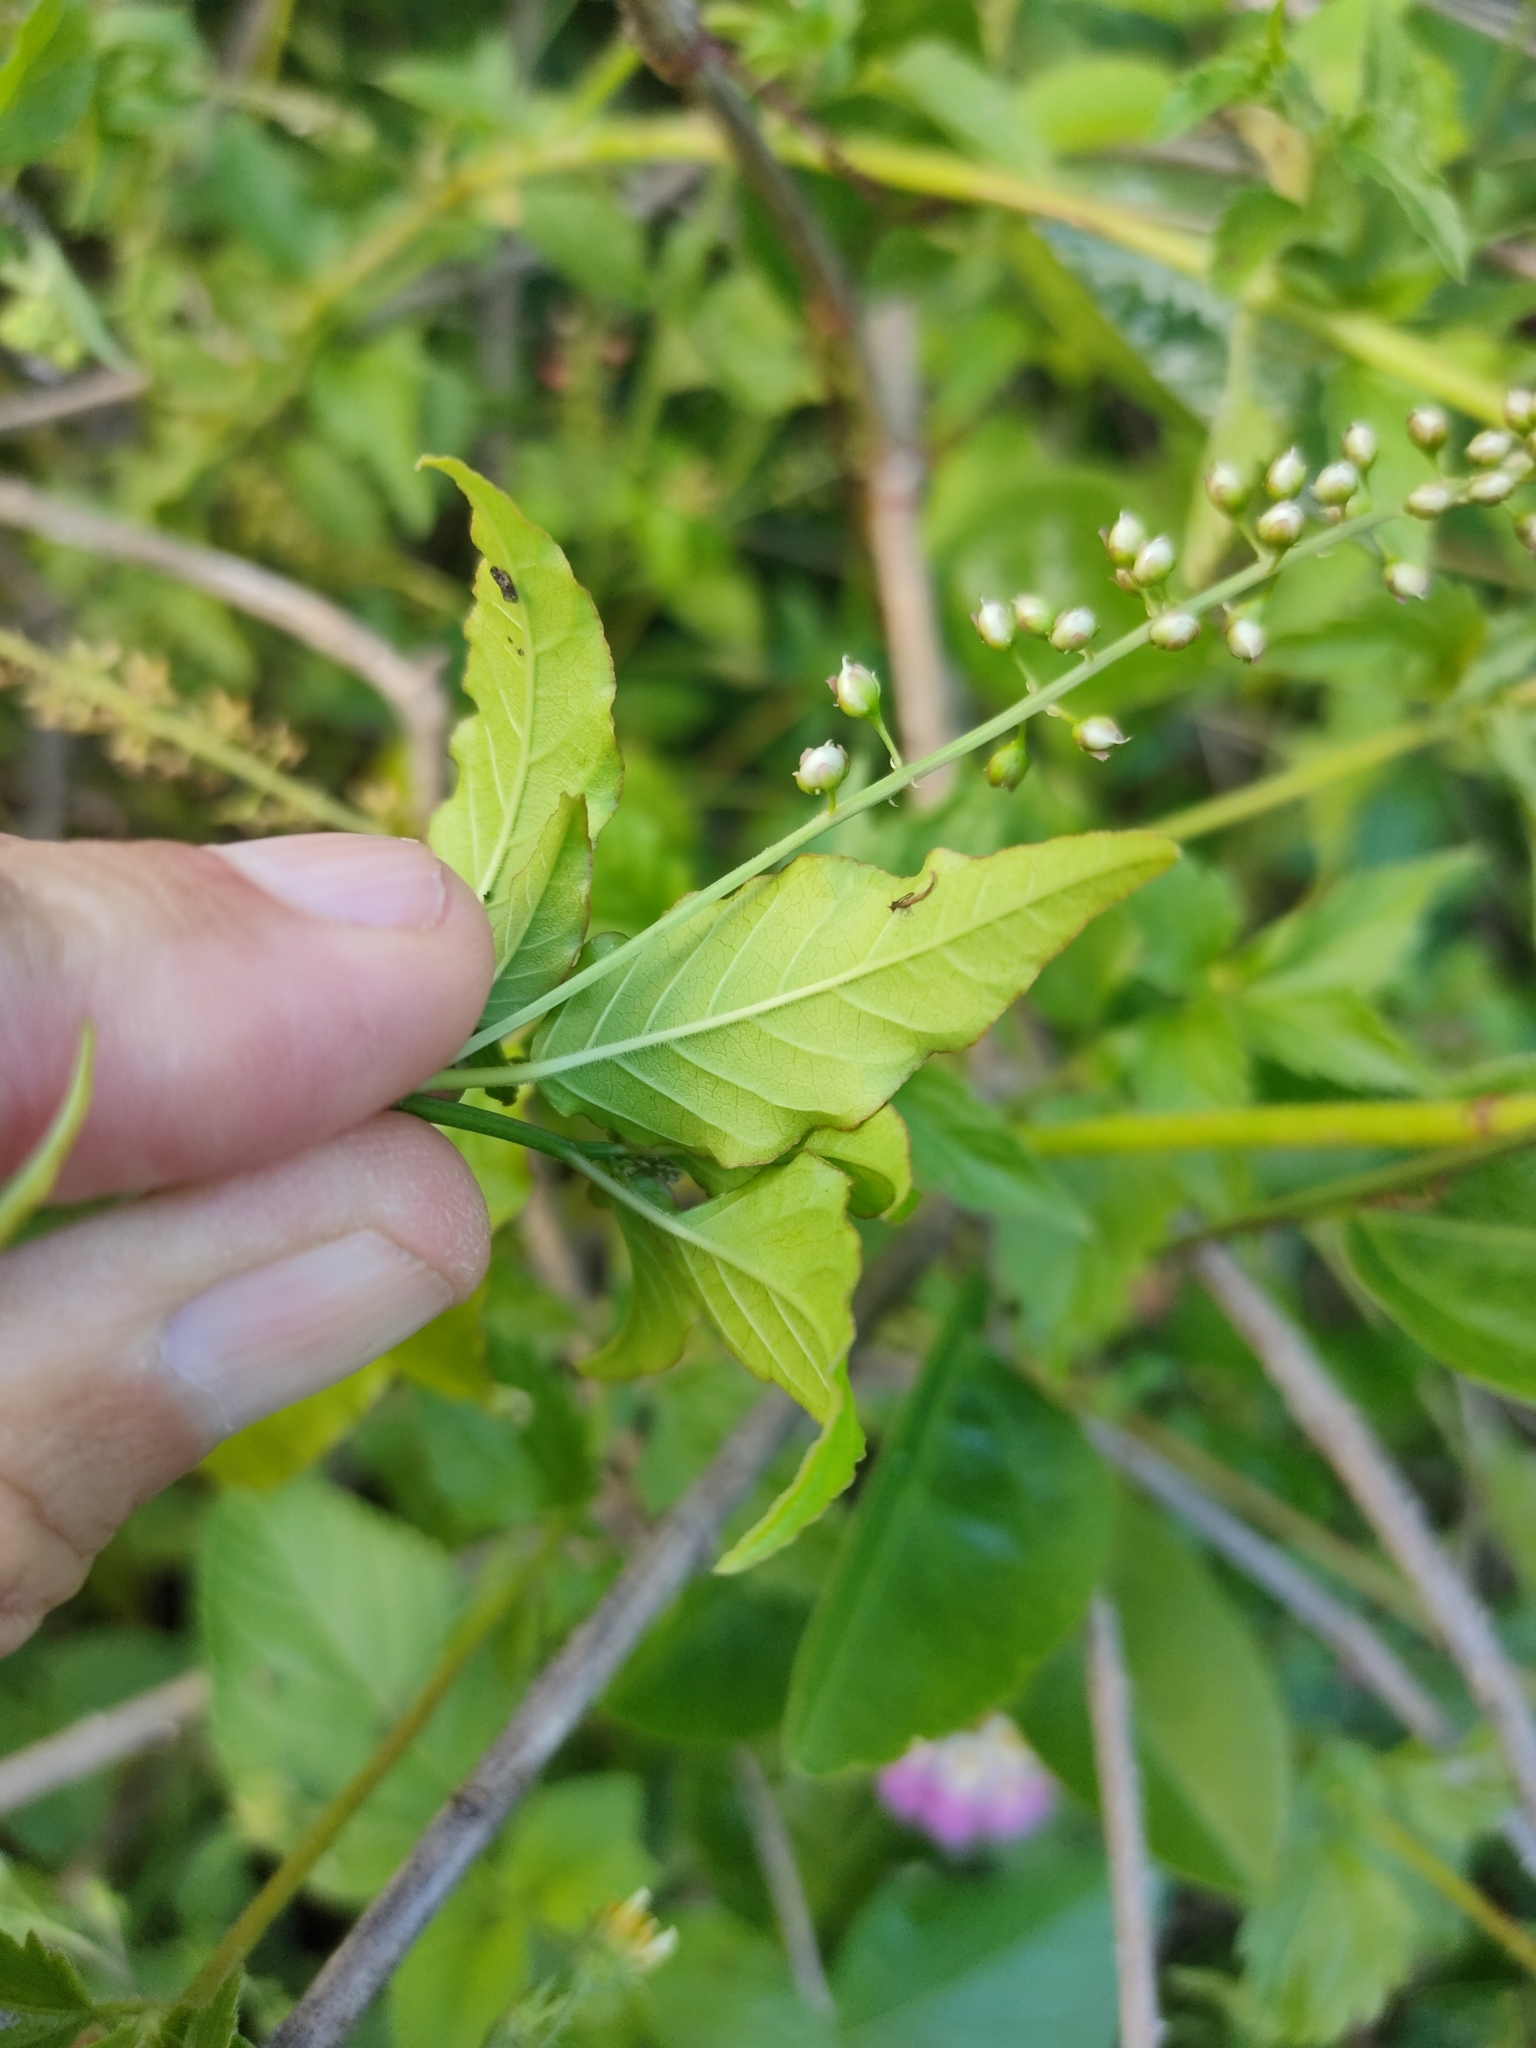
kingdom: Plantae
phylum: Tracheophyta
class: Magnoliopsida
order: Caryophyllales
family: Phytolaccaceae
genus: Rivina
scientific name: Rivina humilis
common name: Rougeplant
